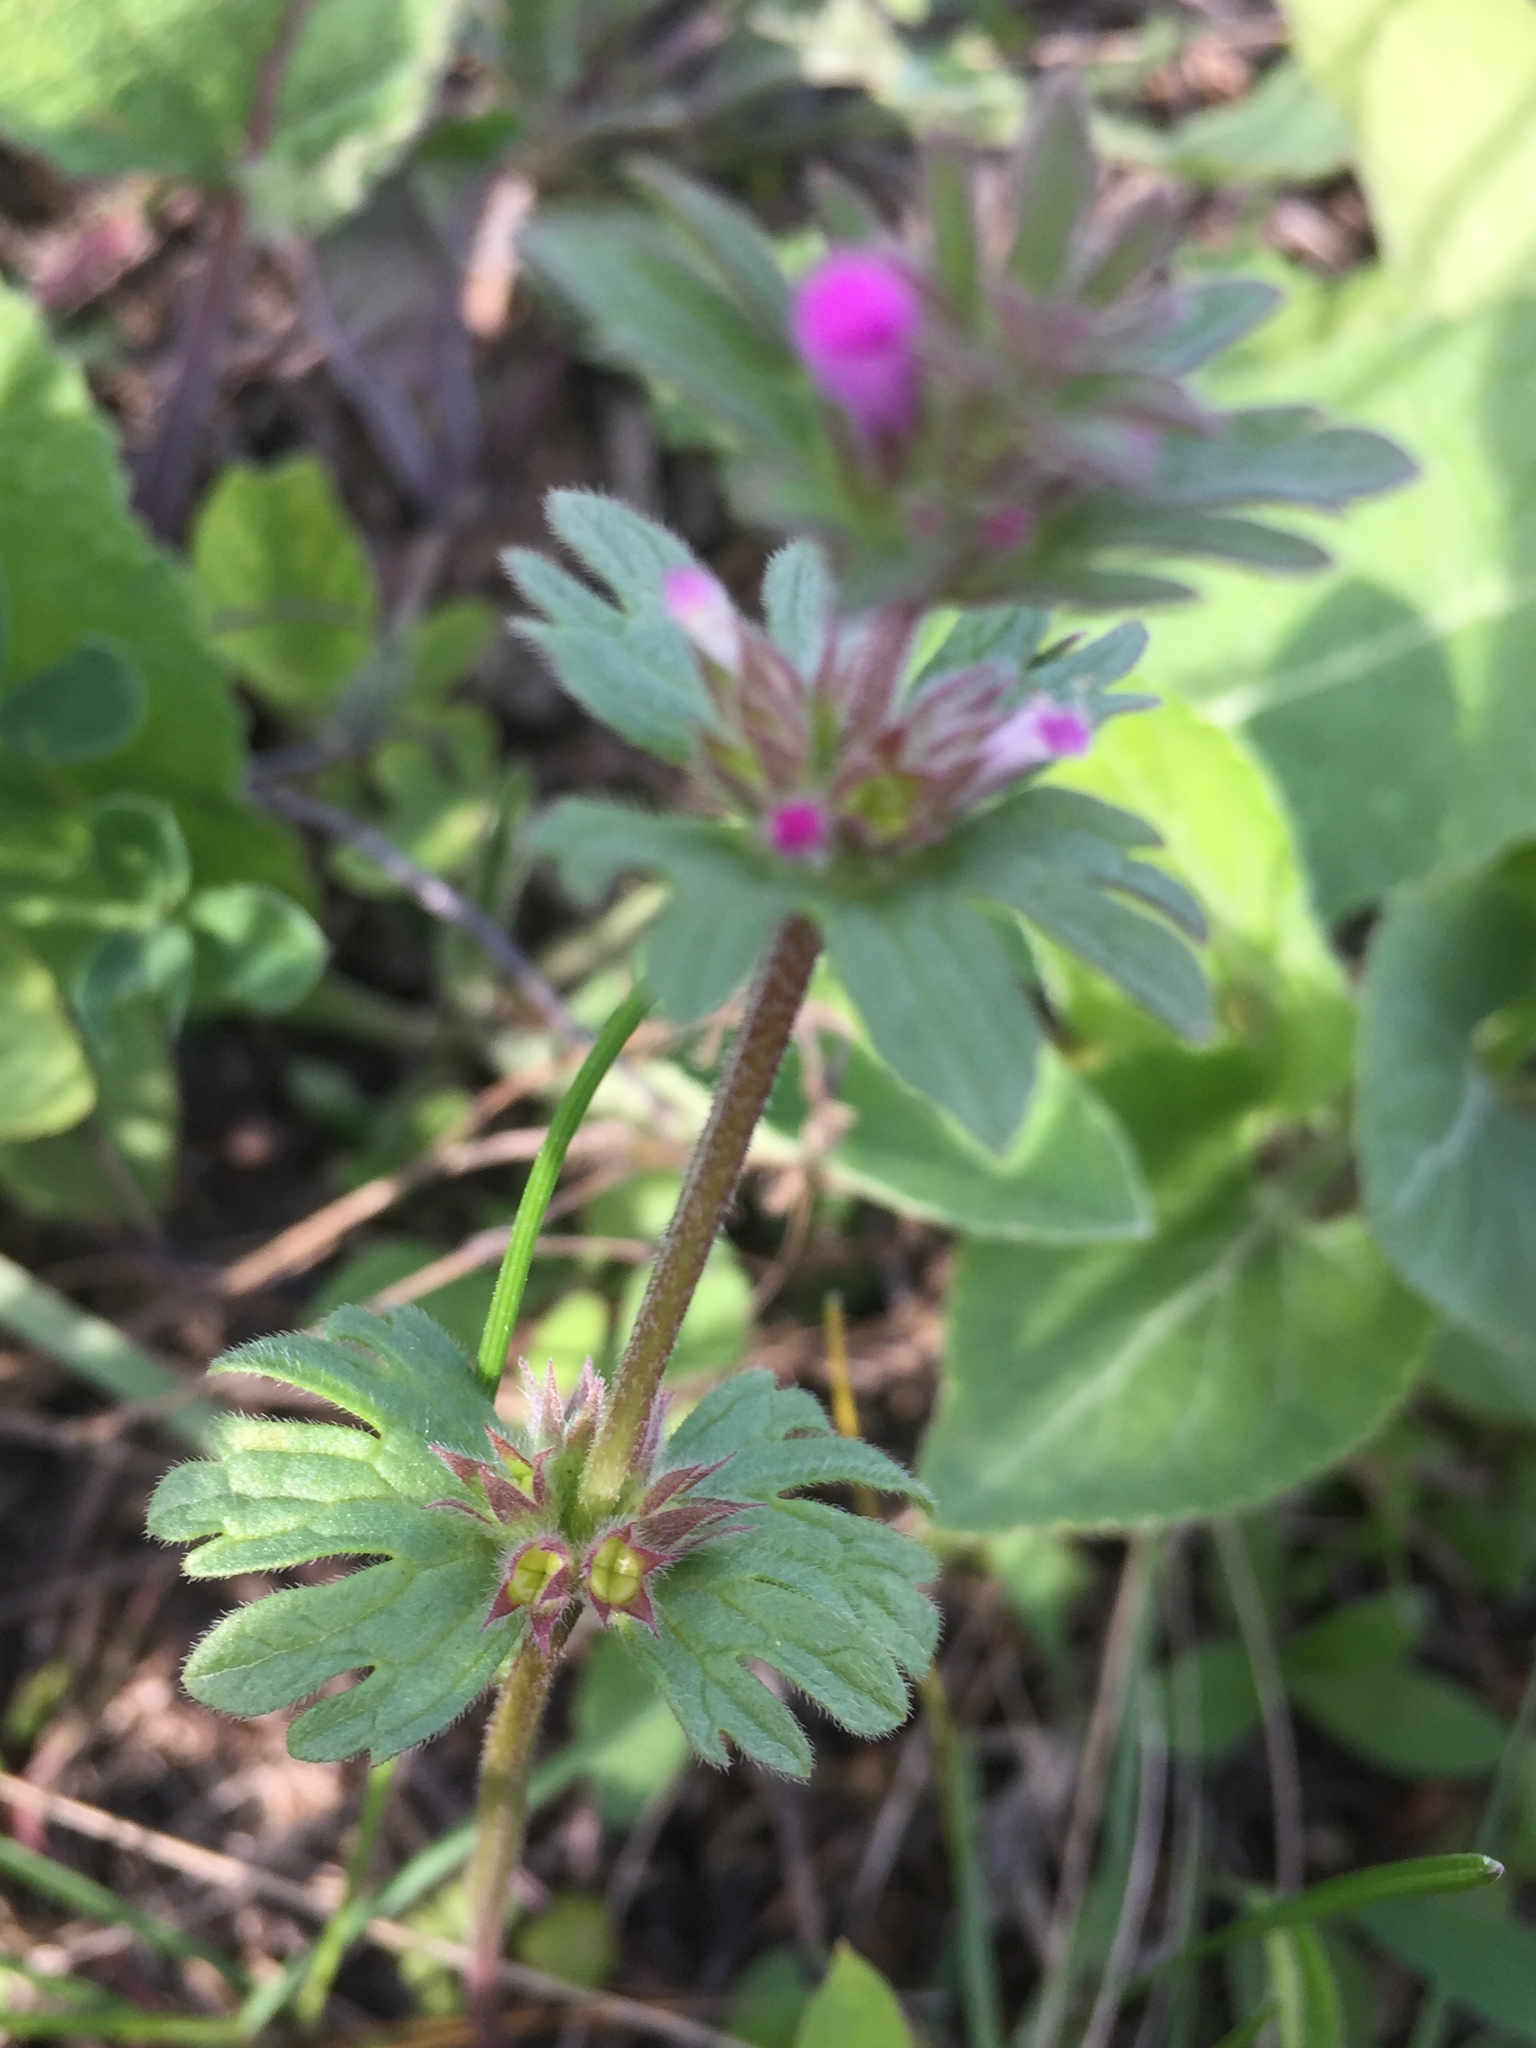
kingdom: Plantae
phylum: Tracheophyta
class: Magnoliopsida
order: Lamiales
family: Lamiaceae
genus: Lamium
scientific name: Lamium amplexicaule
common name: Henbit dead-nettle
